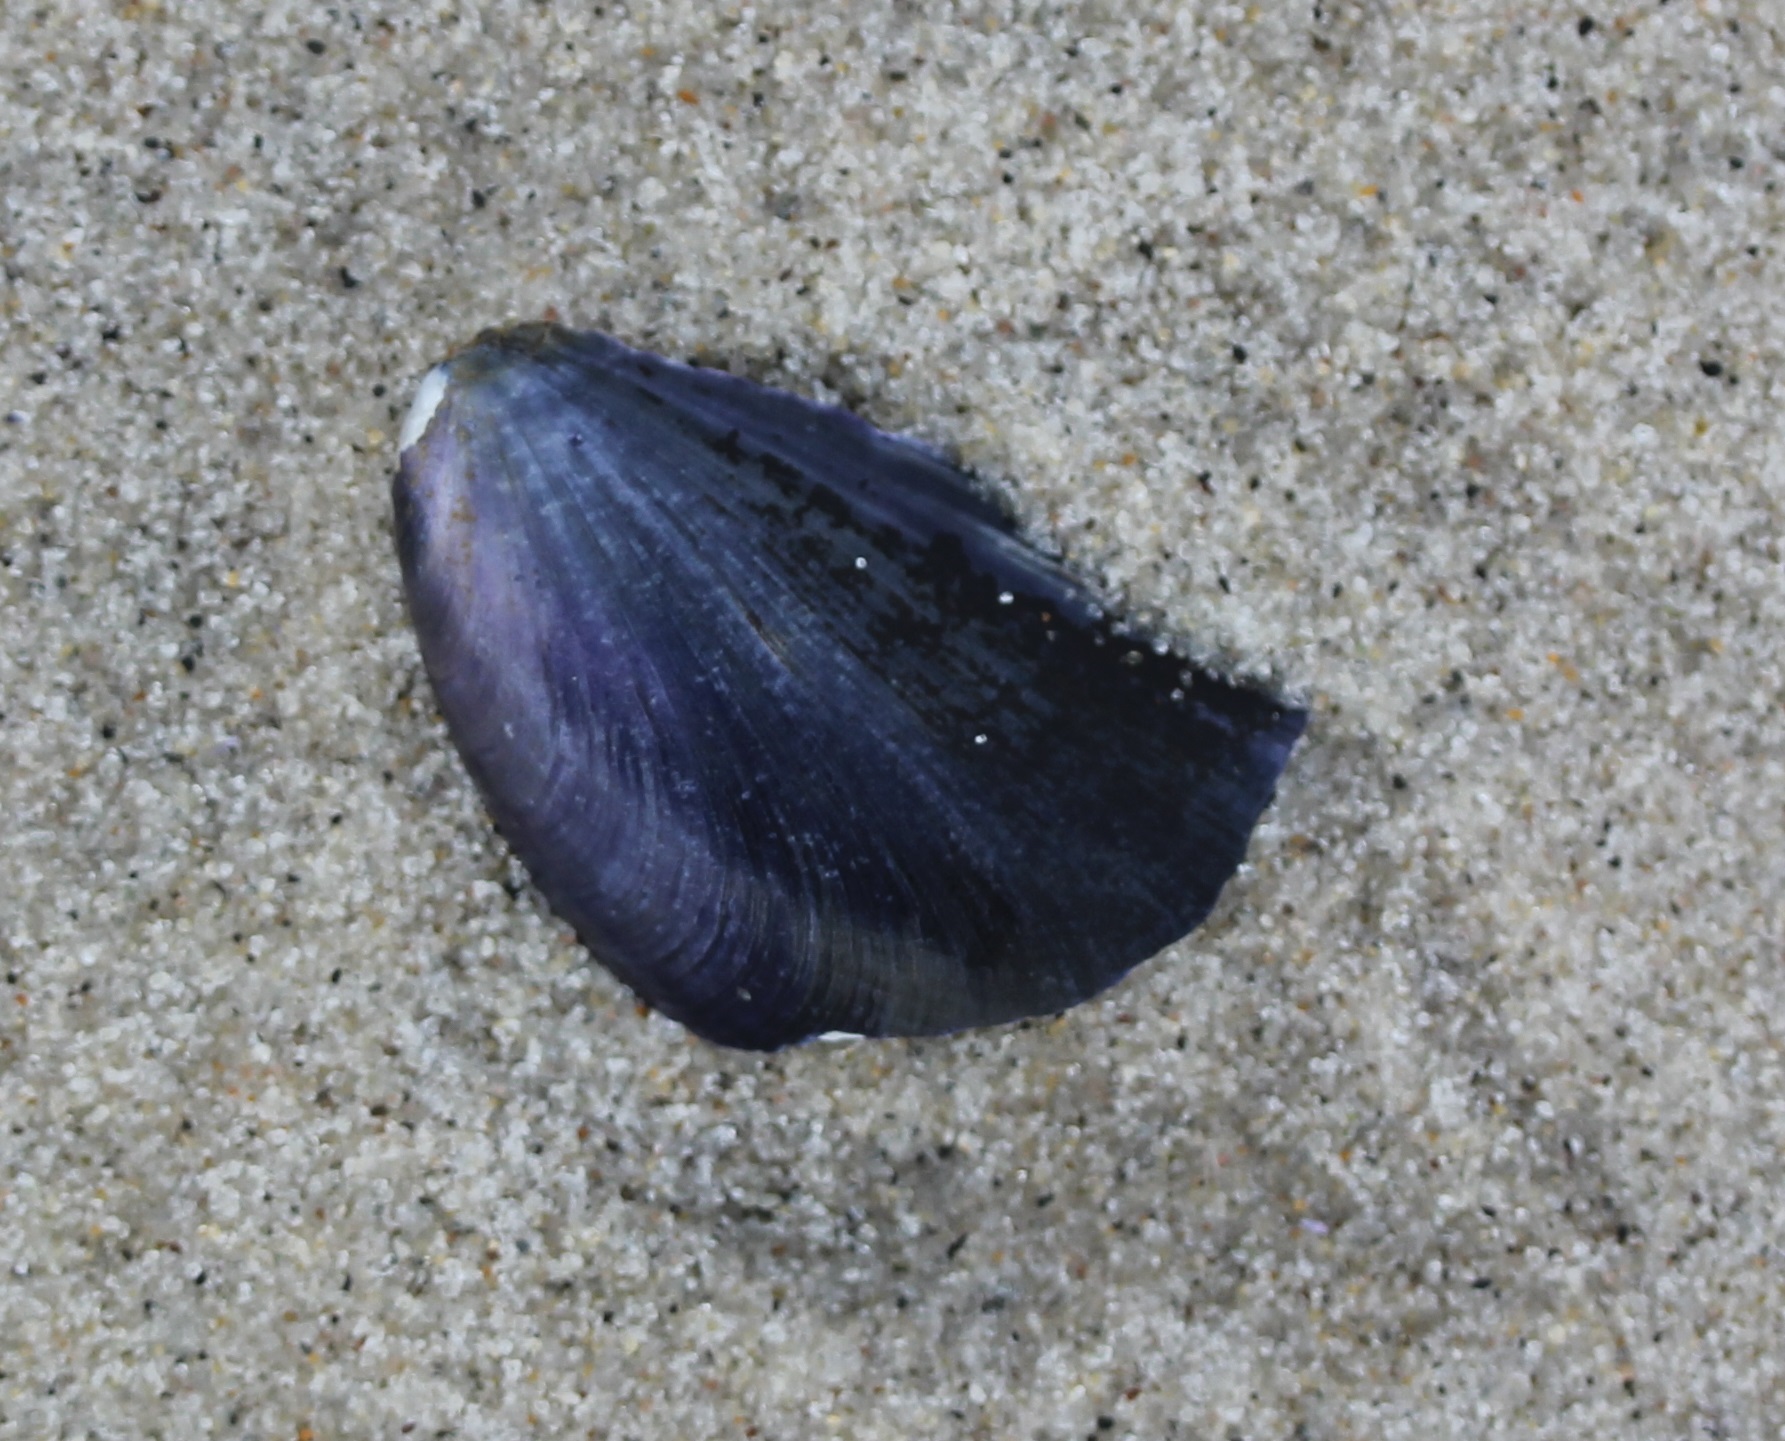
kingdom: Animalia
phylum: Mollusca
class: Bivalvia
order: Mytilida
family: Mytilidae
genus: Mytilus
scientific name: Mytilus edulis
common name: Blue mussel
